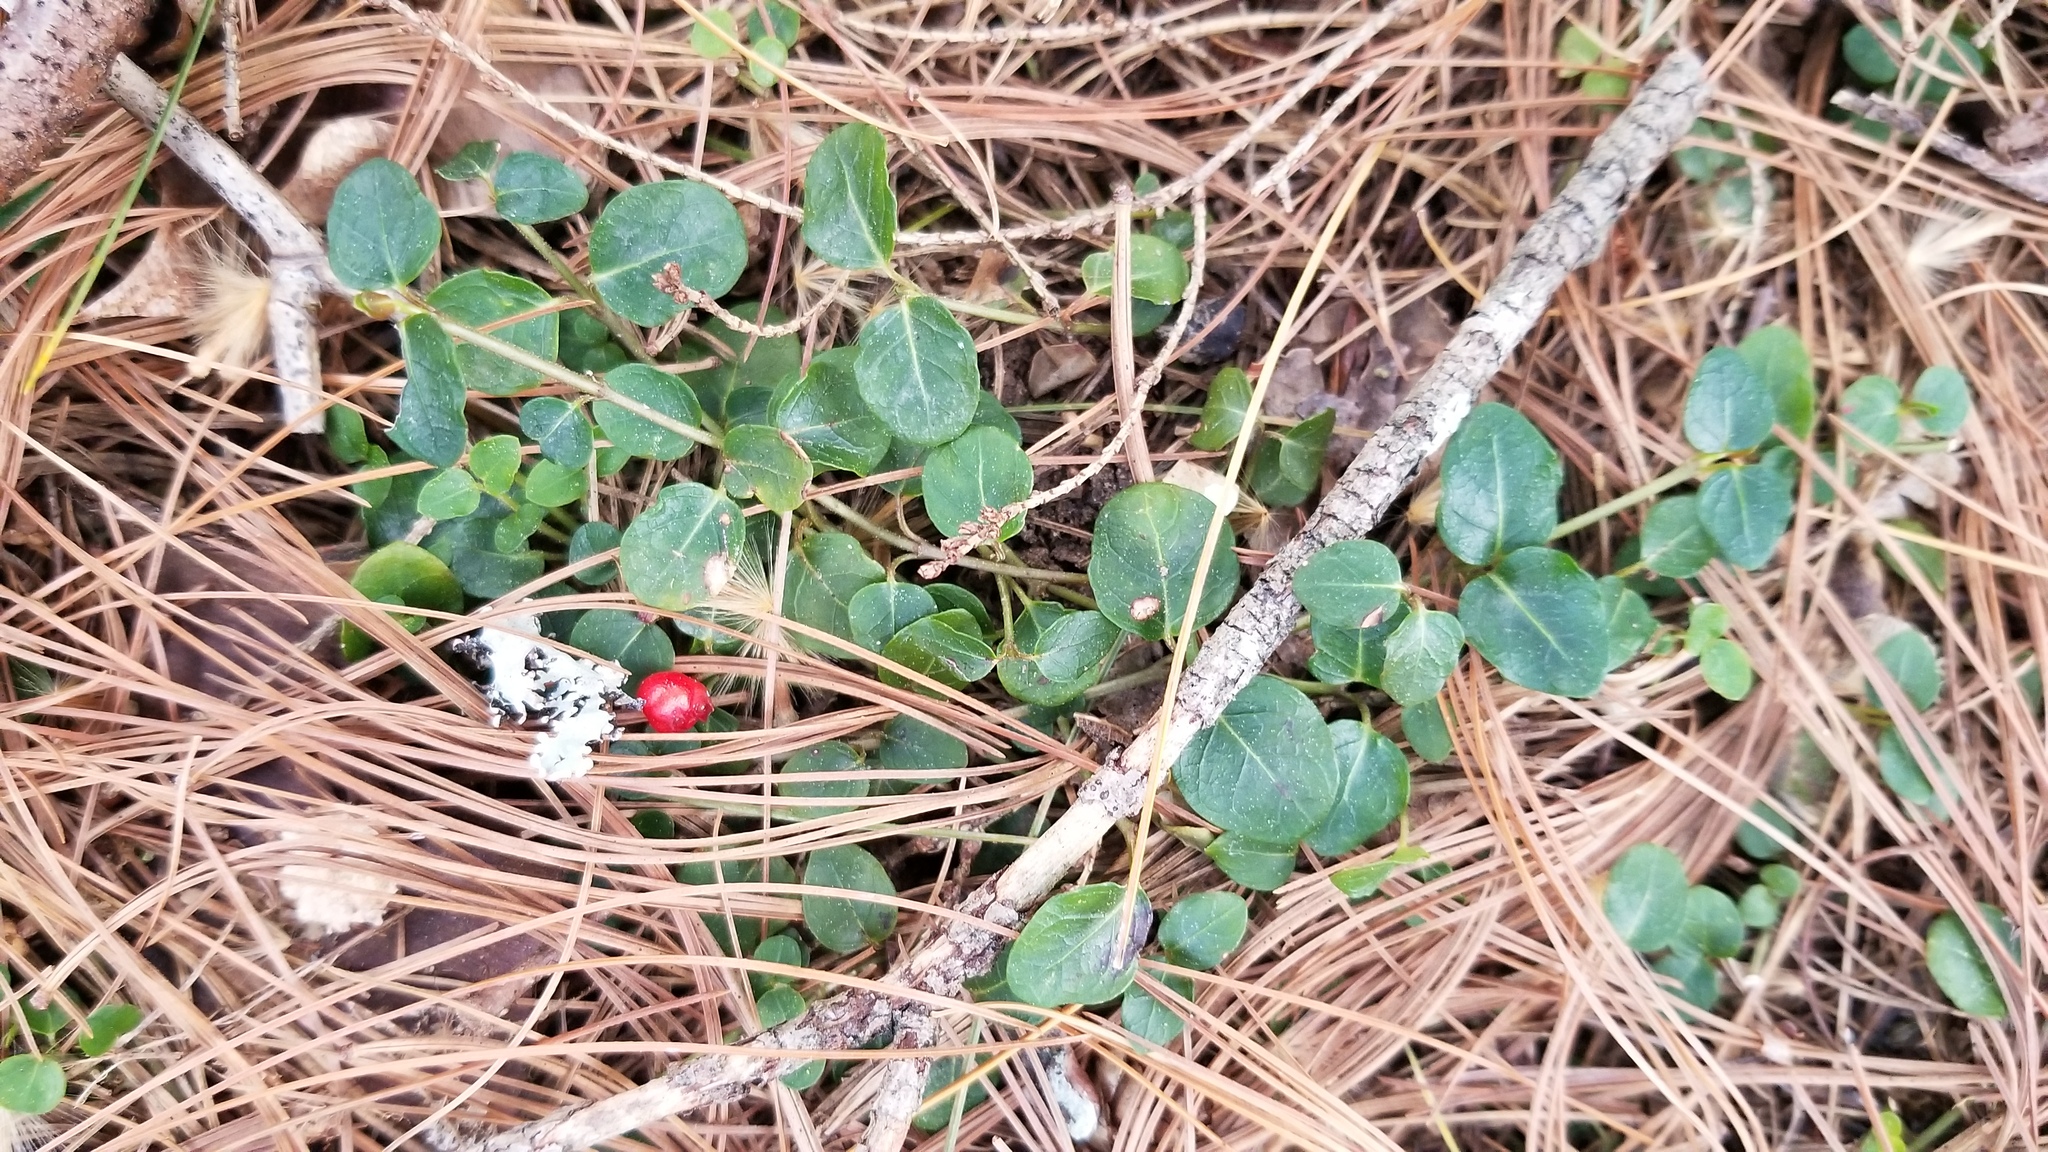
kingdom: Plantae
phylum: Tracheophyta
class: Magnoliopsida
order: Gentianales
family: Rubiaceae
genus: Mitchella
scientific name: Mitchella repens
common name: Partridge-berry
